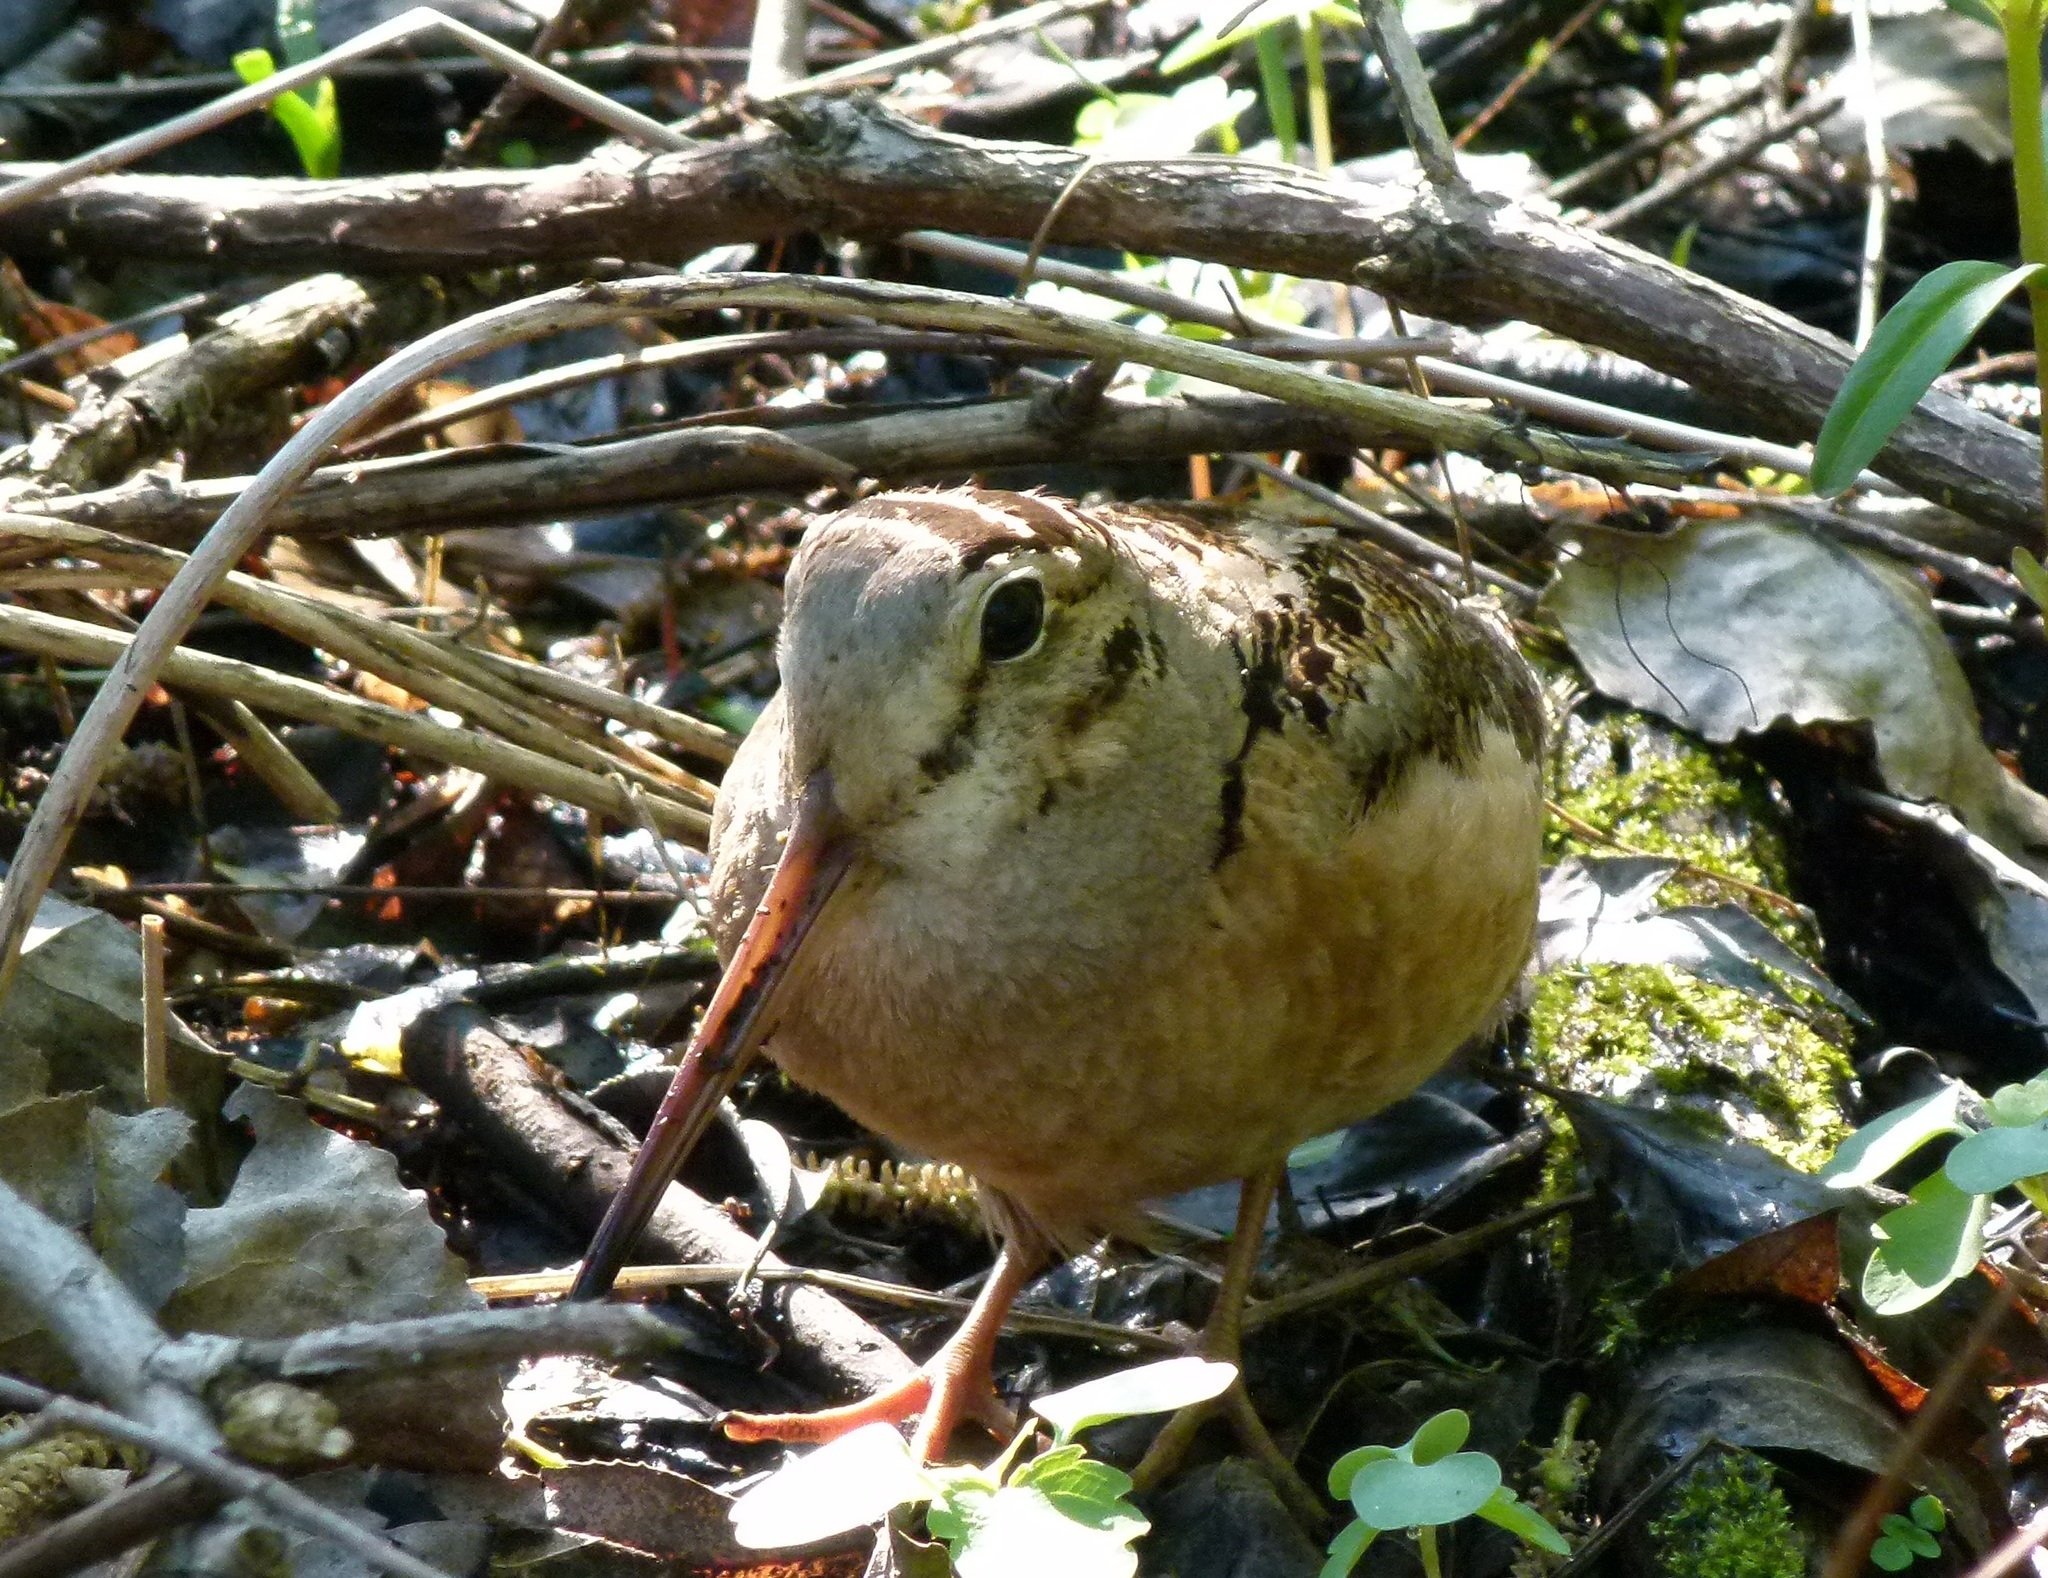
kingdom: Animalia
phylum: Chordata
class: Aves
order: Charadriiformes
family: Scolopacidae
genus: Scolopax
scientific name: Scolopax minor
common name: American woodcock
